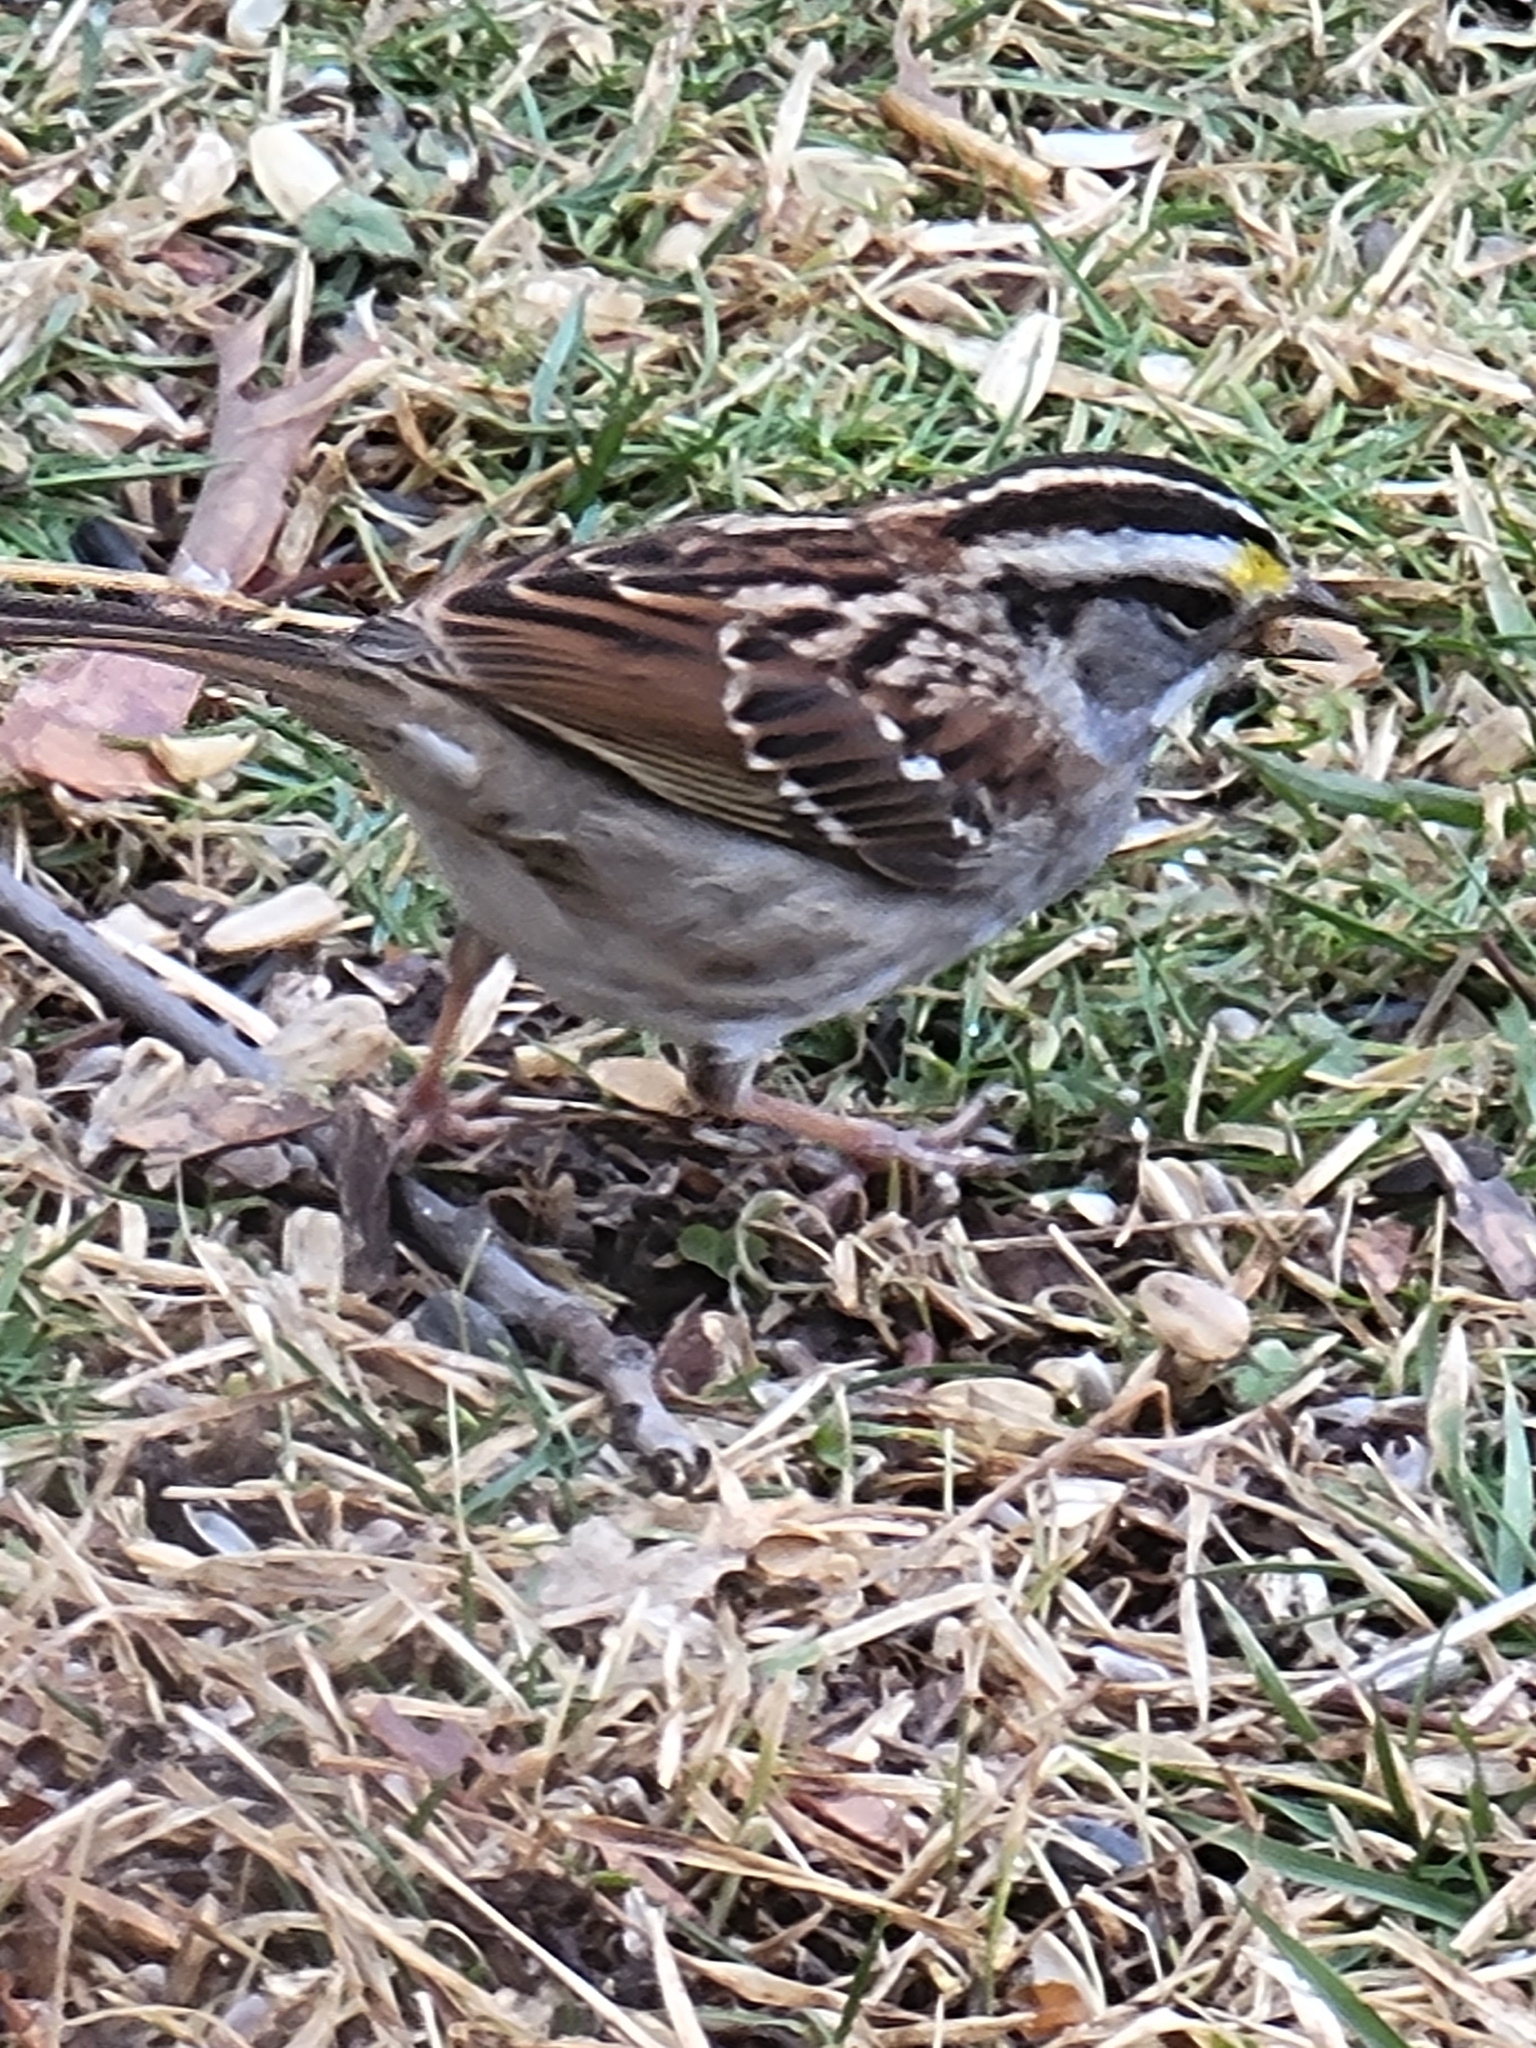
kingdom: Animalia
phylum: Chordata
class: Aves
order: Passeriformes
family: Passerellidae
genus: Zonotrichia
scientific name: Zonotrichia albicollis
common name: White-throated sparrow
